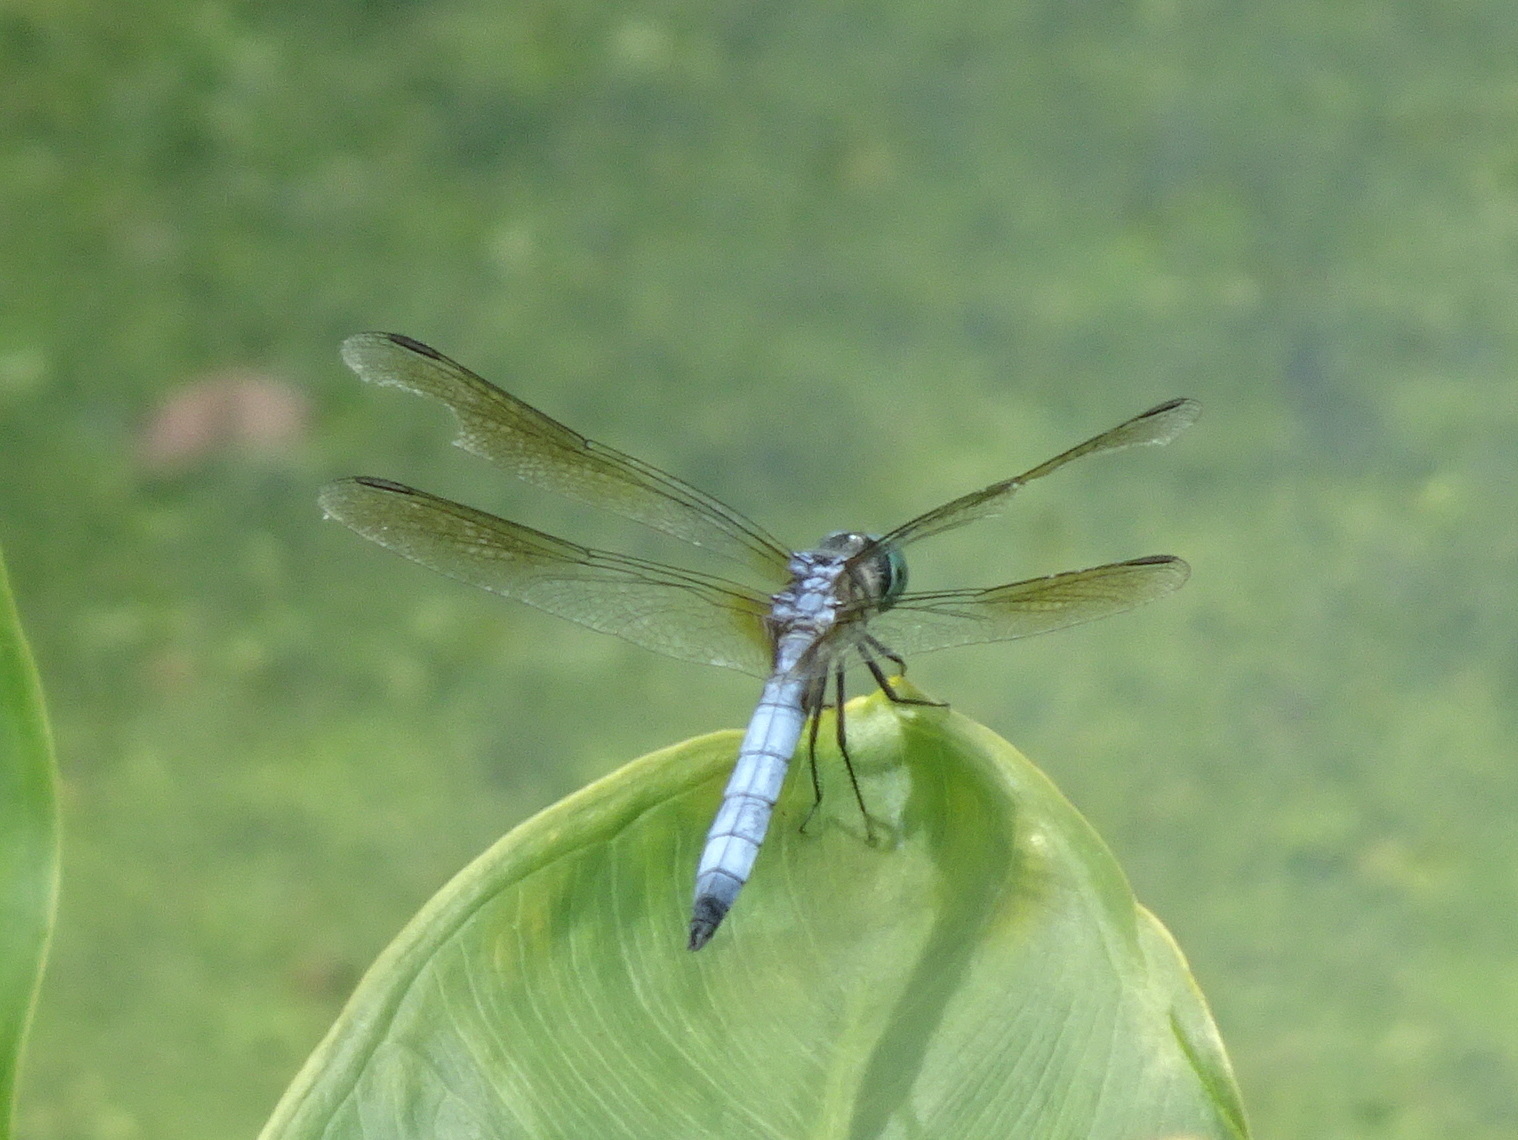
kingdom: Animalia
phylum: Arthropoda
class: Insecta
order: Odonata
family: Libellulidae
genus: Pachydiplax
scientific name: Pachydiplax longipennis
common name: Blue dasher
